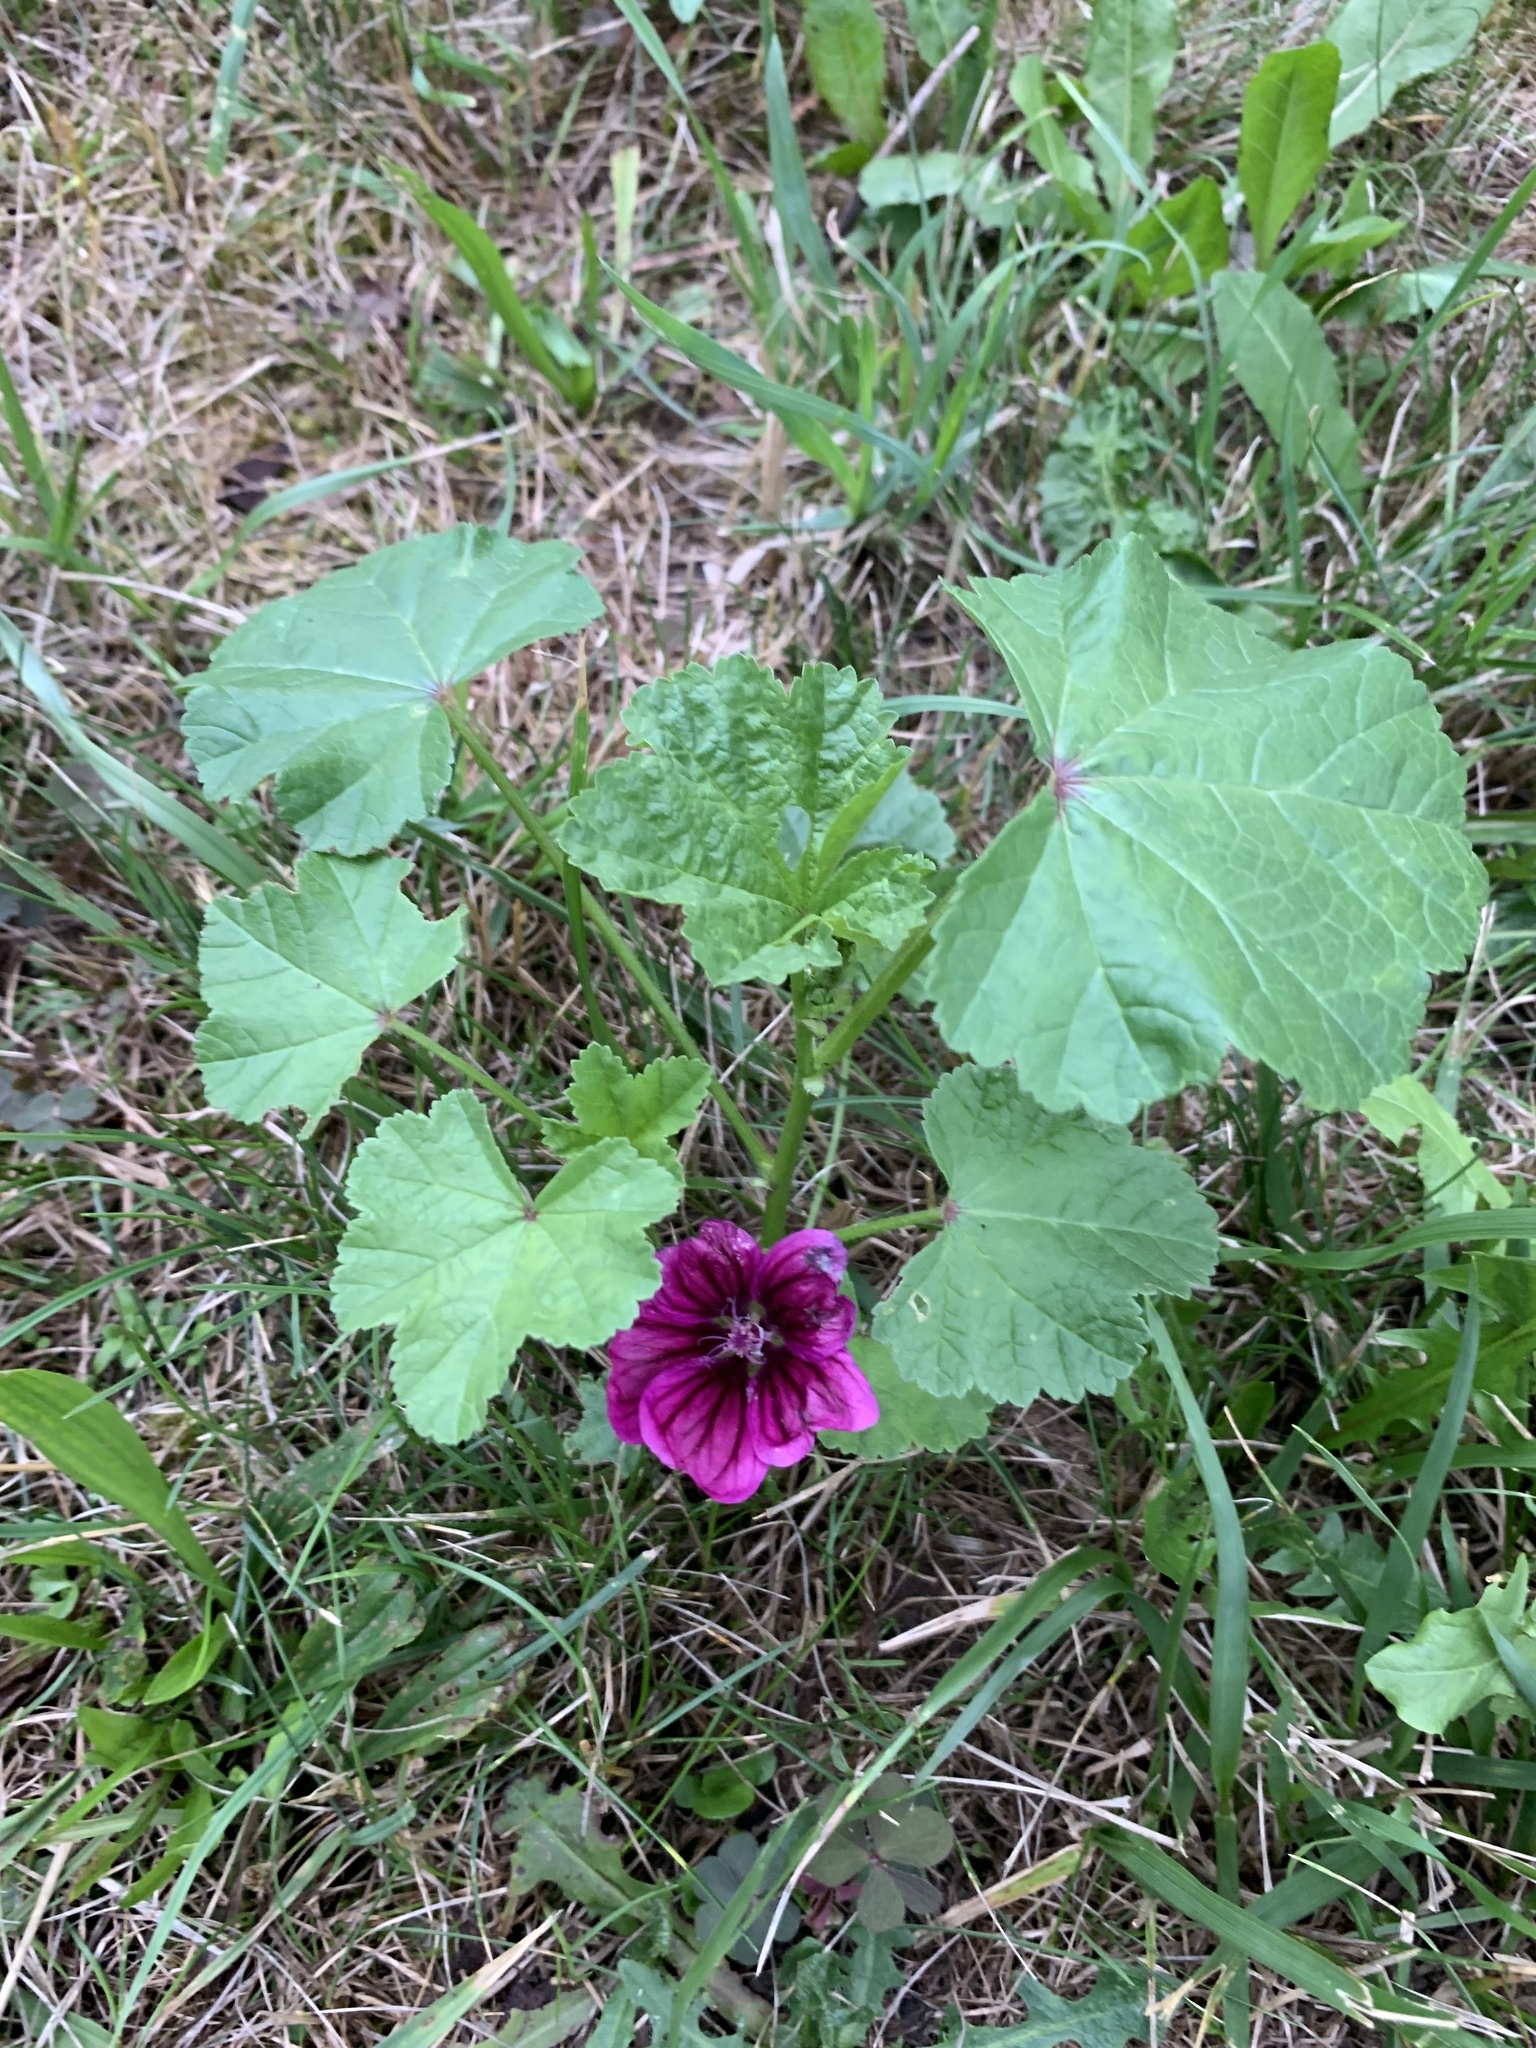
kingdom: Plantae
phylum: Tracheophyta
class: Magnoliopsida
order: Malvales
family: Malvaceae
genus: Malva
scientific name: Malva sylvestris
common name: Common mallow
